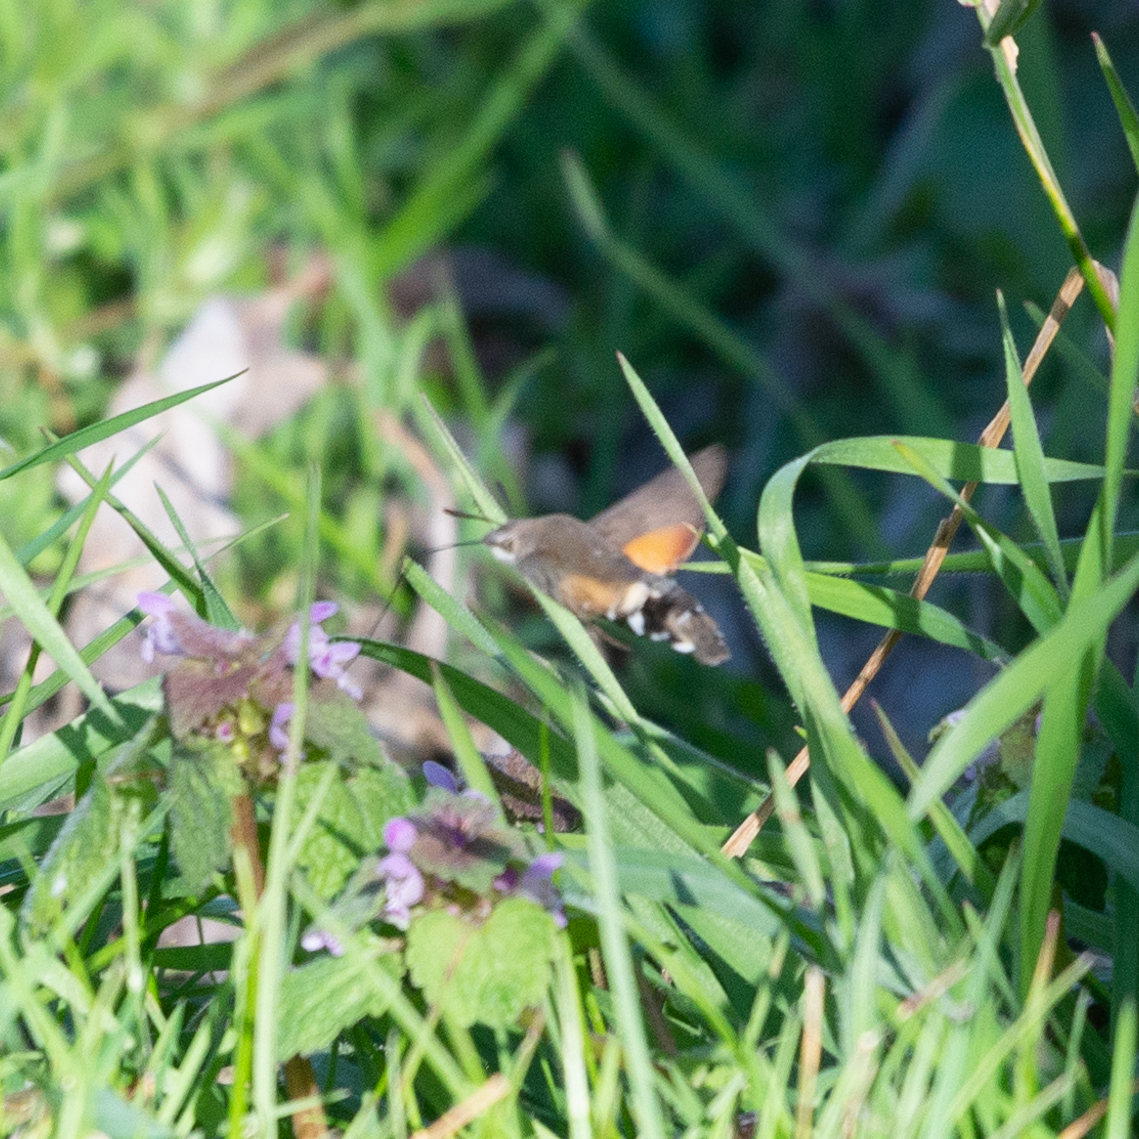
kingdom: Animalia
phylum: Arthropoda
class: Insecta
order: Lepidoptera
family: Sphingidae
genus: Macroglossum
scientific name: Macroglossum stellatarum
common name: Humming-bird hawk-moth
